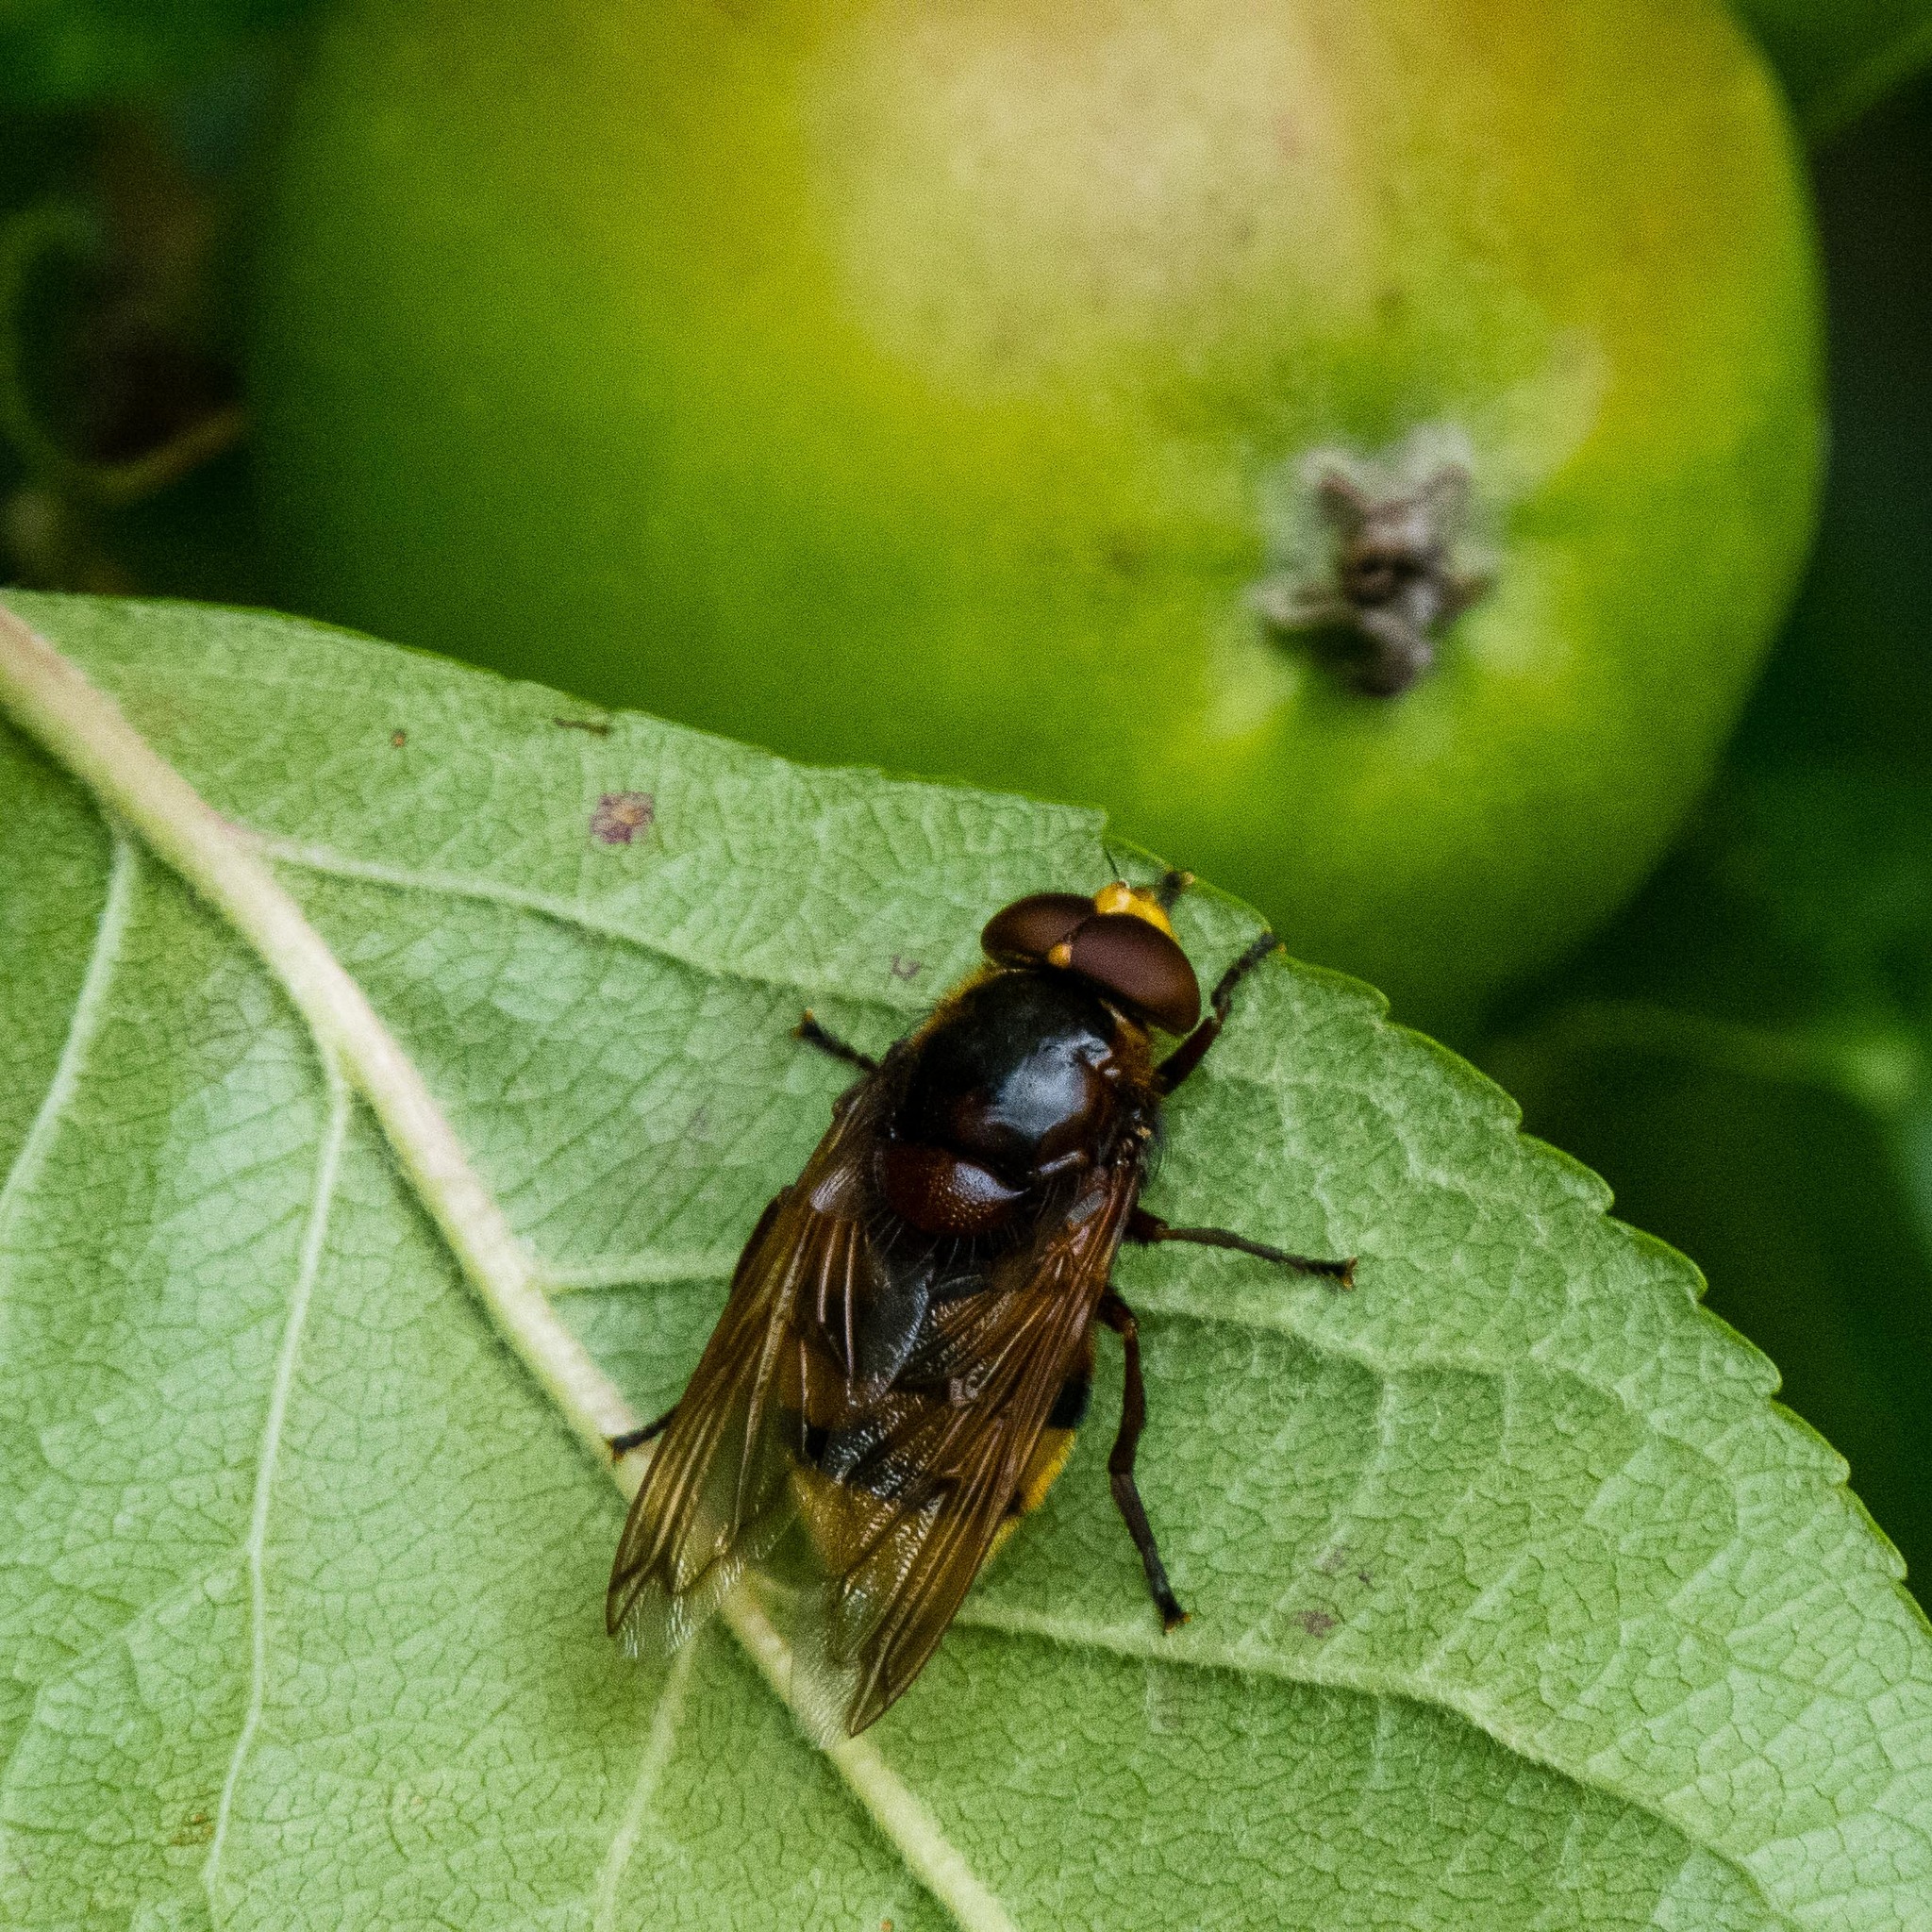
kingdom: Animalia
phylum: Arthropoda
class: Insecta
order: Diptera
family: Syrphidae
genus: Volucella
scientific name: Volucella zonaria
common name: Hornet hoverfly
